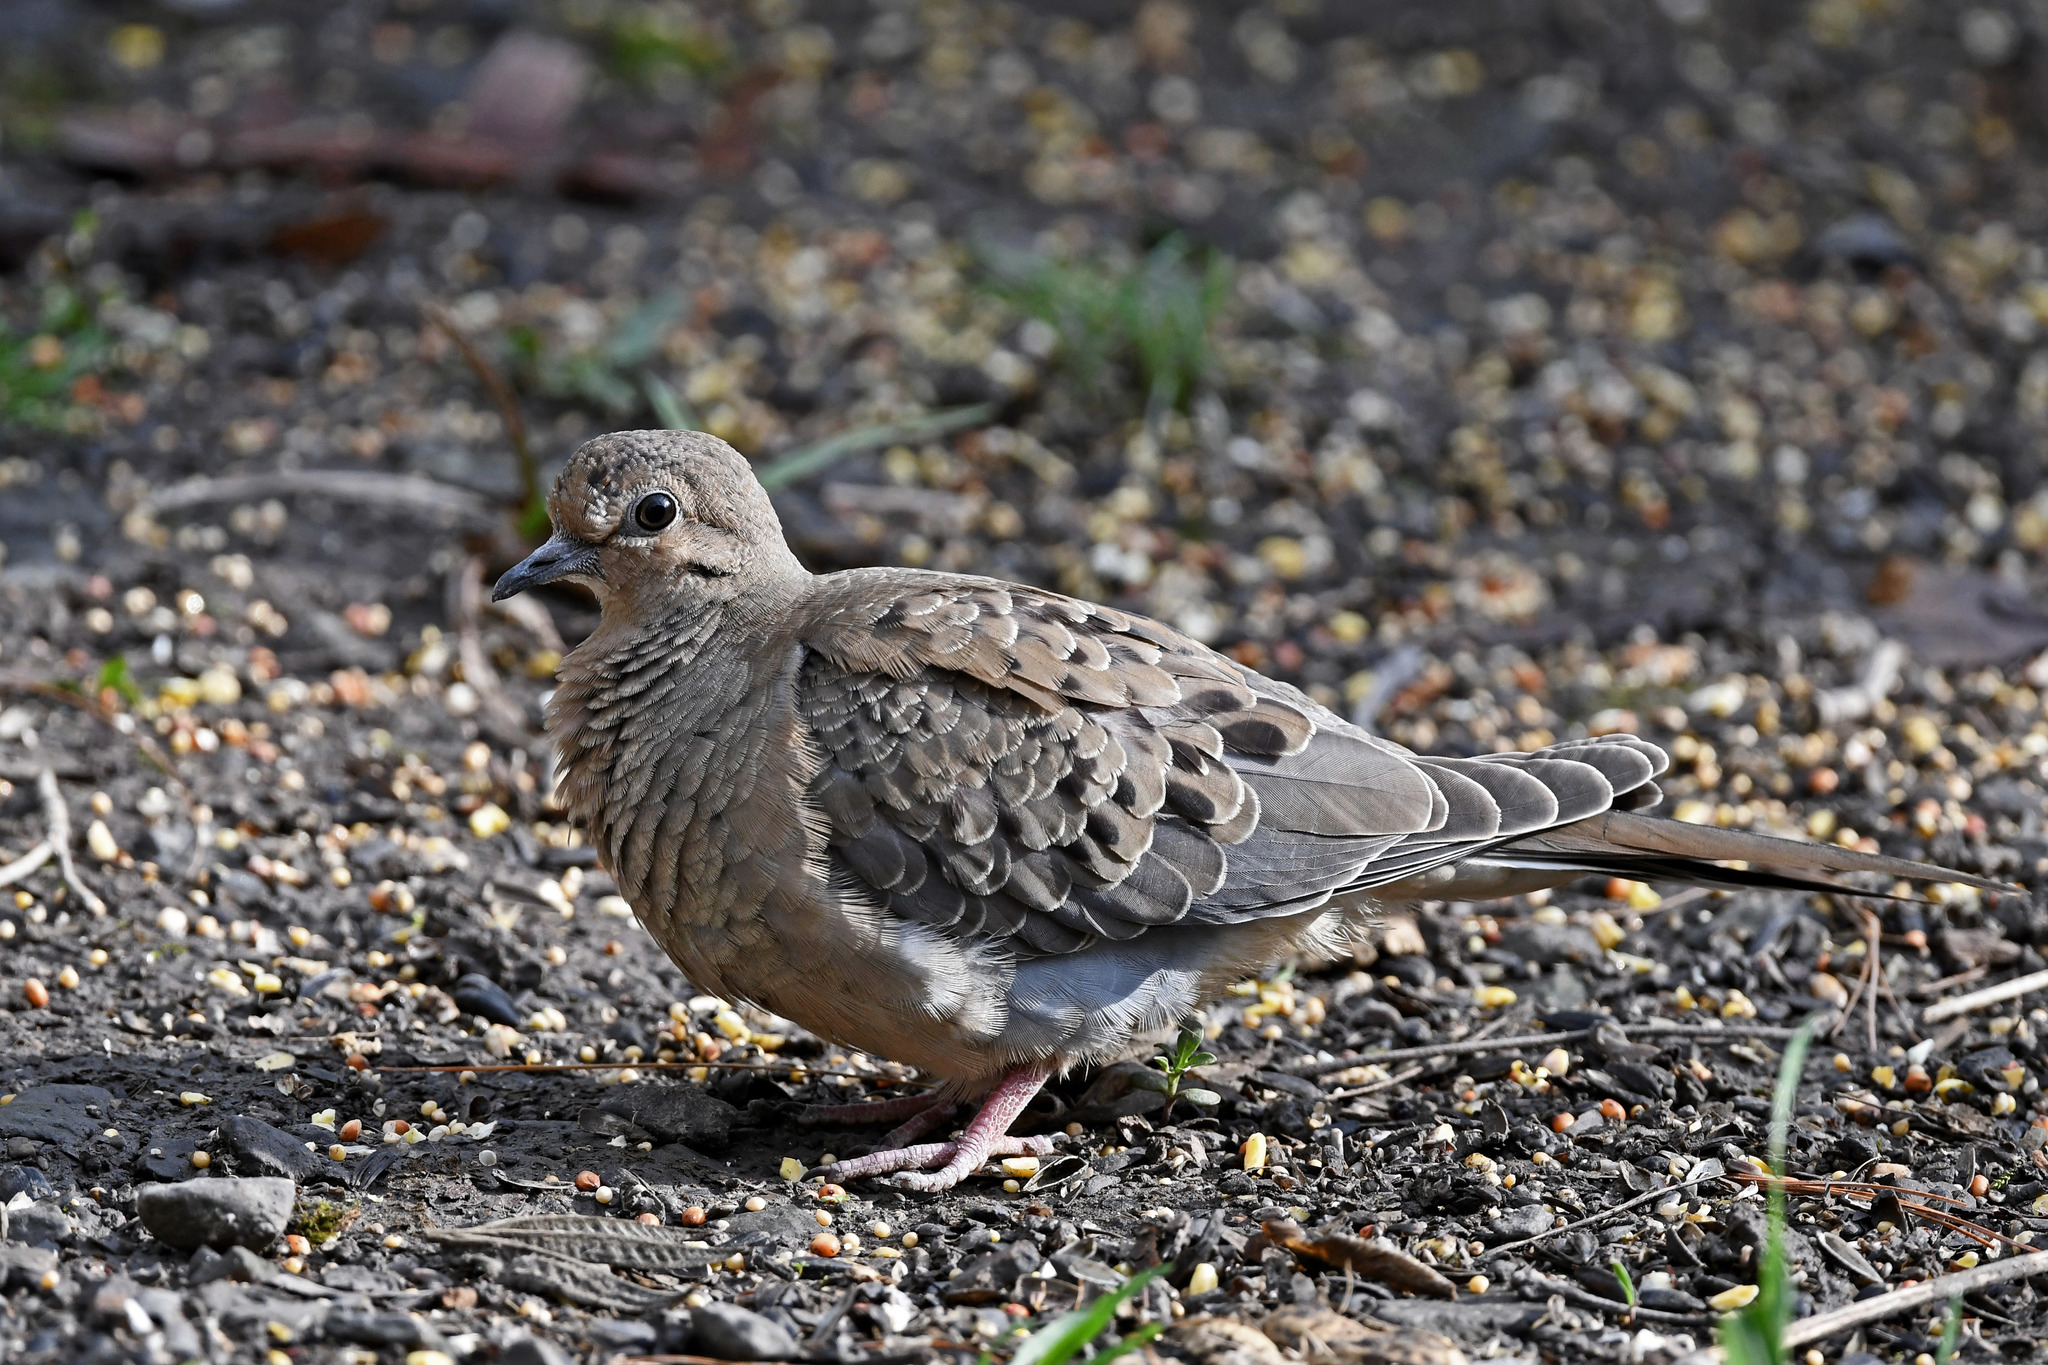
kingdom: Animalia
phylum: Chordata
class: Aves
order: Columbiformes
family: Columbidae
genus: Zenaida
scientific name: Zenaida macroura
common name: Mourning dove
